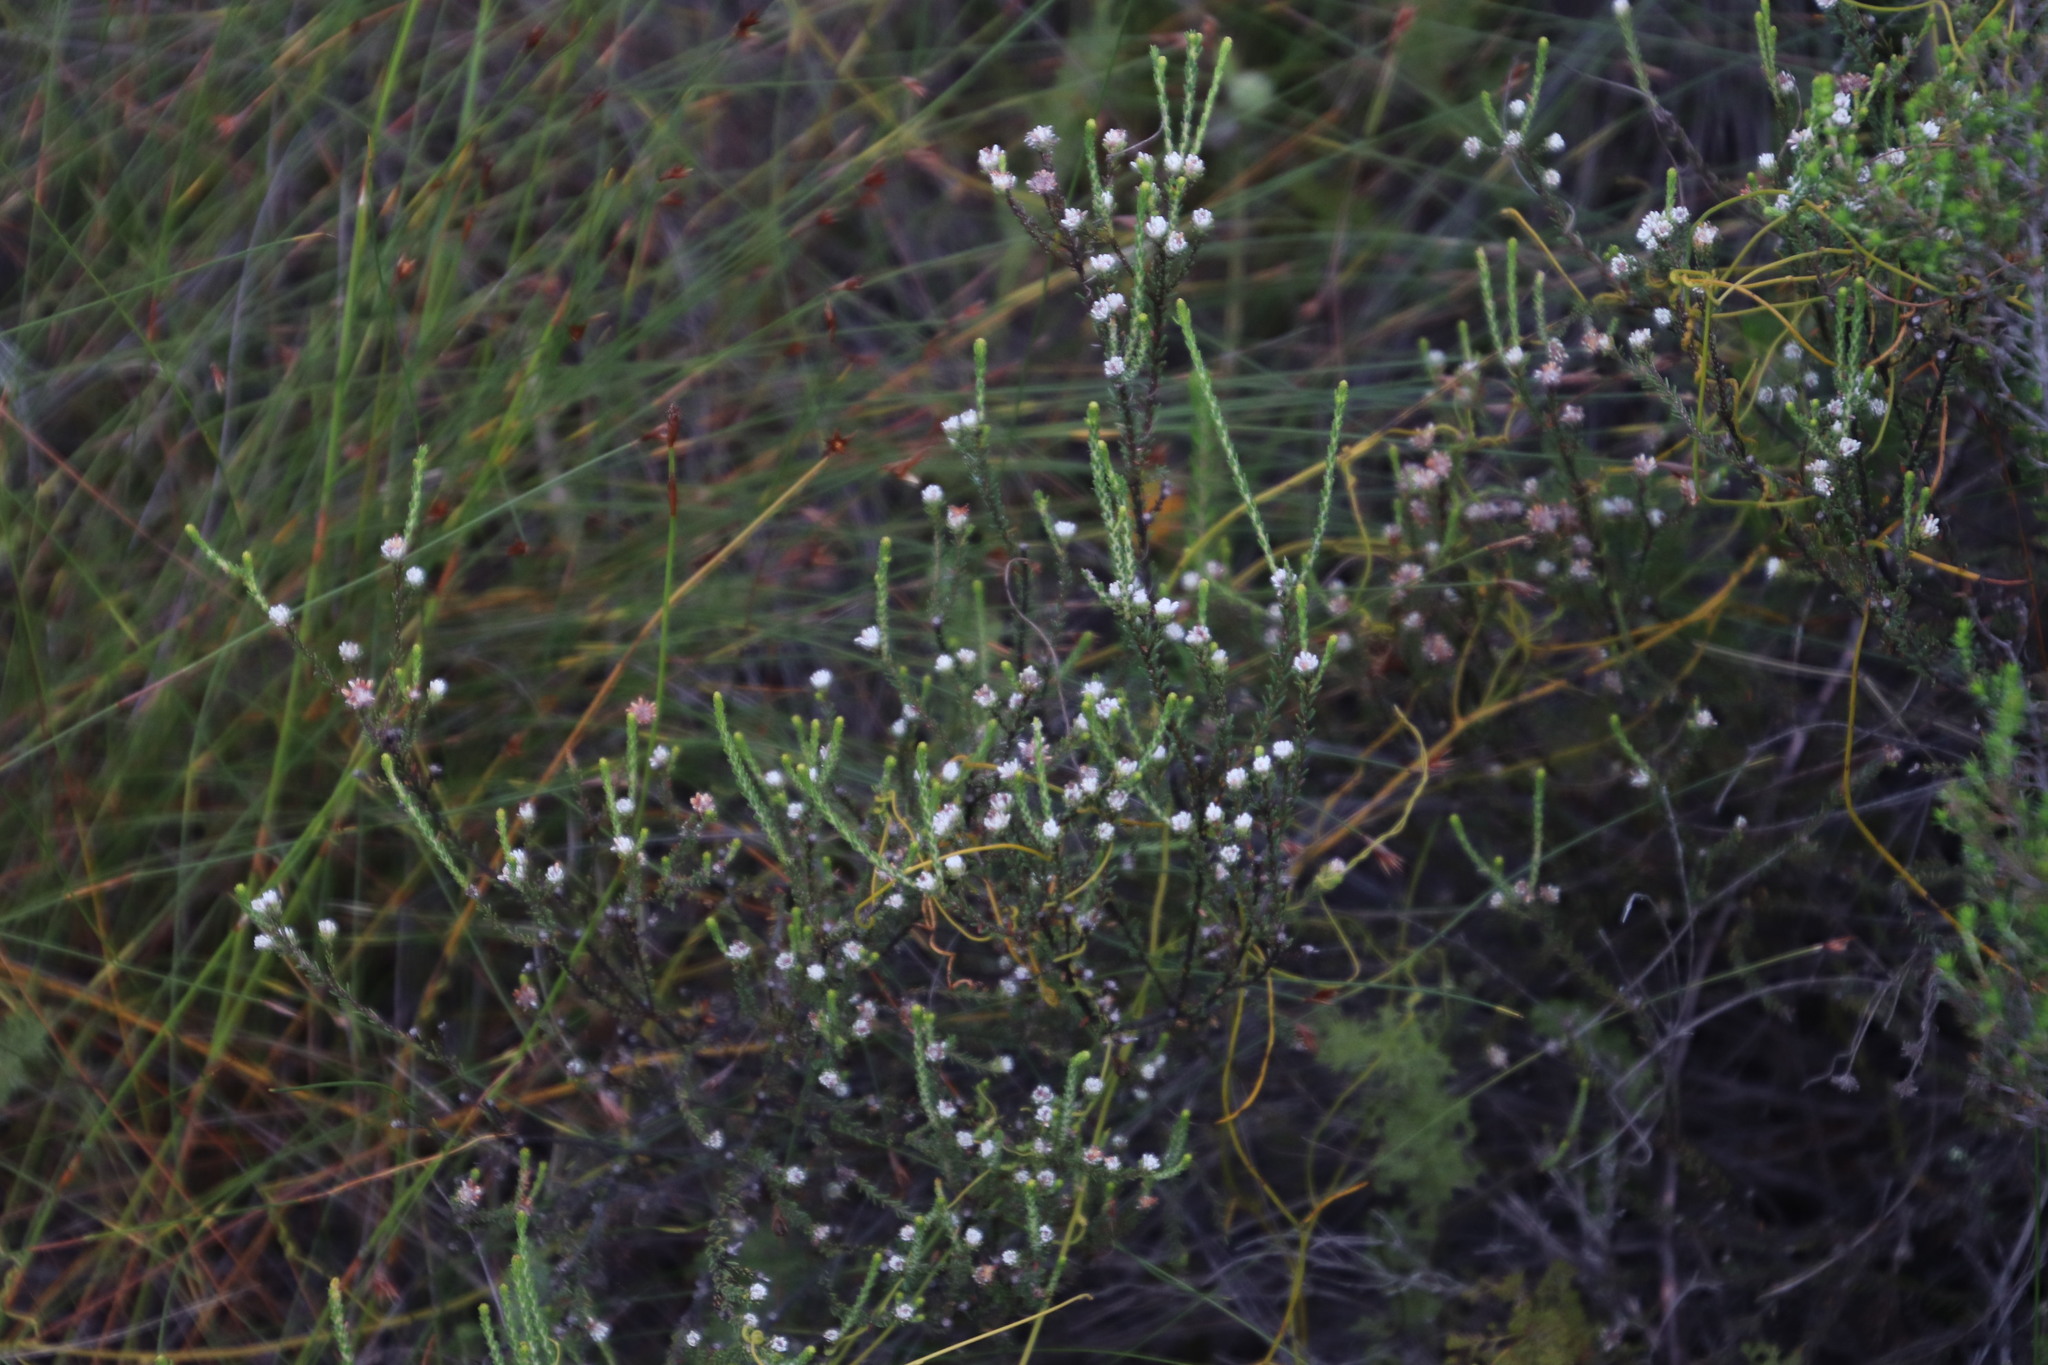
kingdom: Plantae
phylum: Tracheophyta
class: Magnoliopsida
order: Bruniales
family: Bruniaceae
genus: Staavia
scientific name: Staavia radiata
